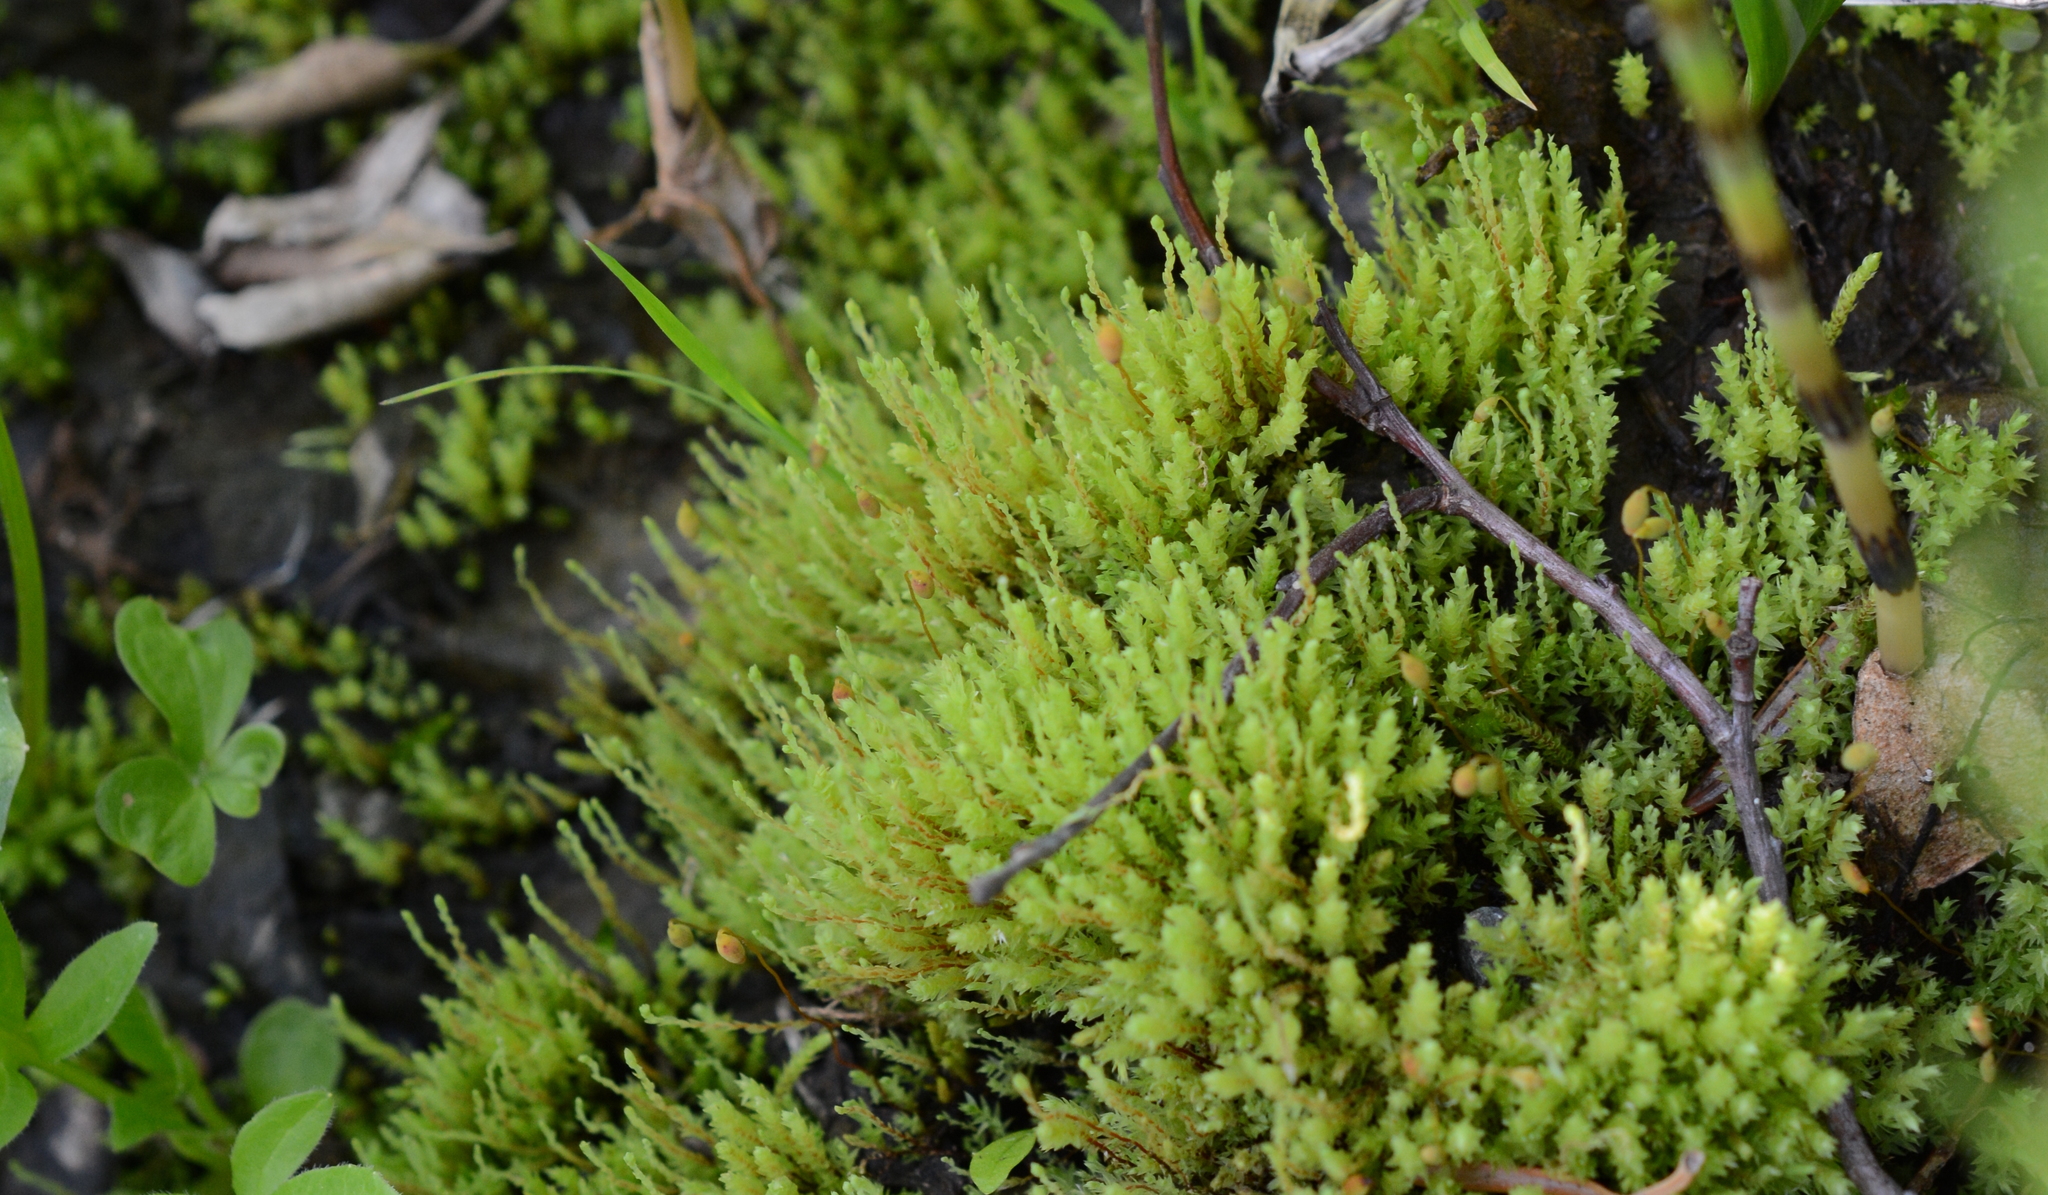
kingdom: Plantae
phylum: Bryophyta
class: Bryopsida
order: Bryales
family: Mniaceae
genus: Pohlia
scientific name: Pohlia wahlenbergii
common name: Wahlenberg's nodding moss
